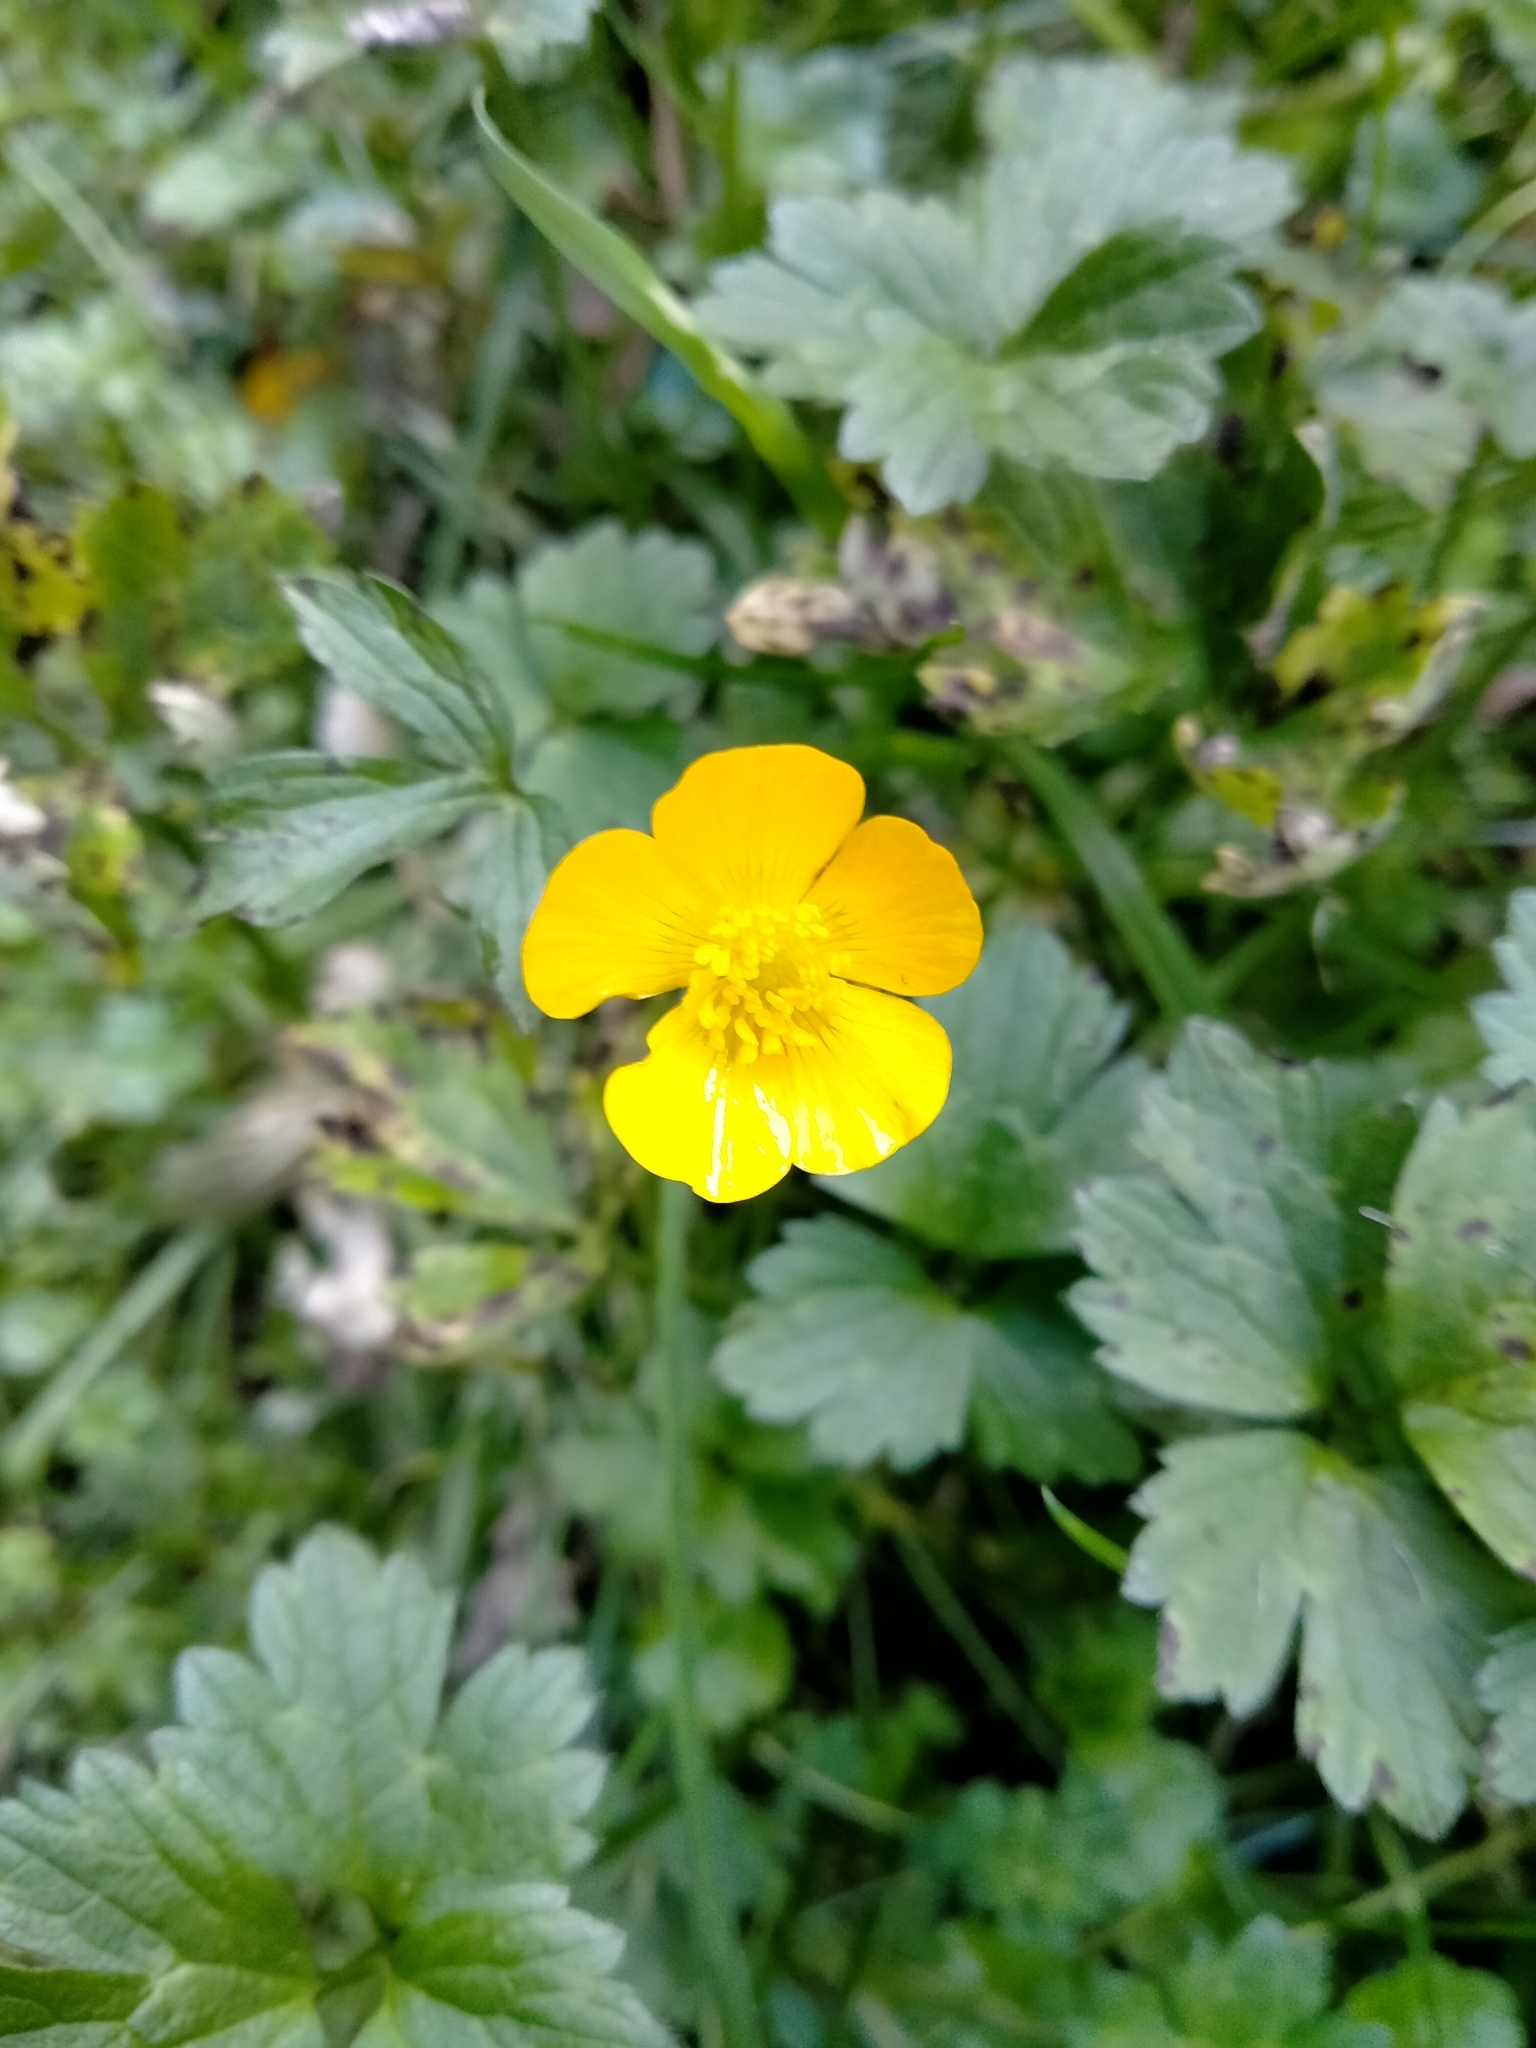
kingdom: Plantae
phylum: Tracheophyta
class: Magnoliopsida
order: Ranunculales
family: Ranunculaceae
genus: Ranunculus
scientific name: Ranunculus repens
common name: Creeping buttercup
